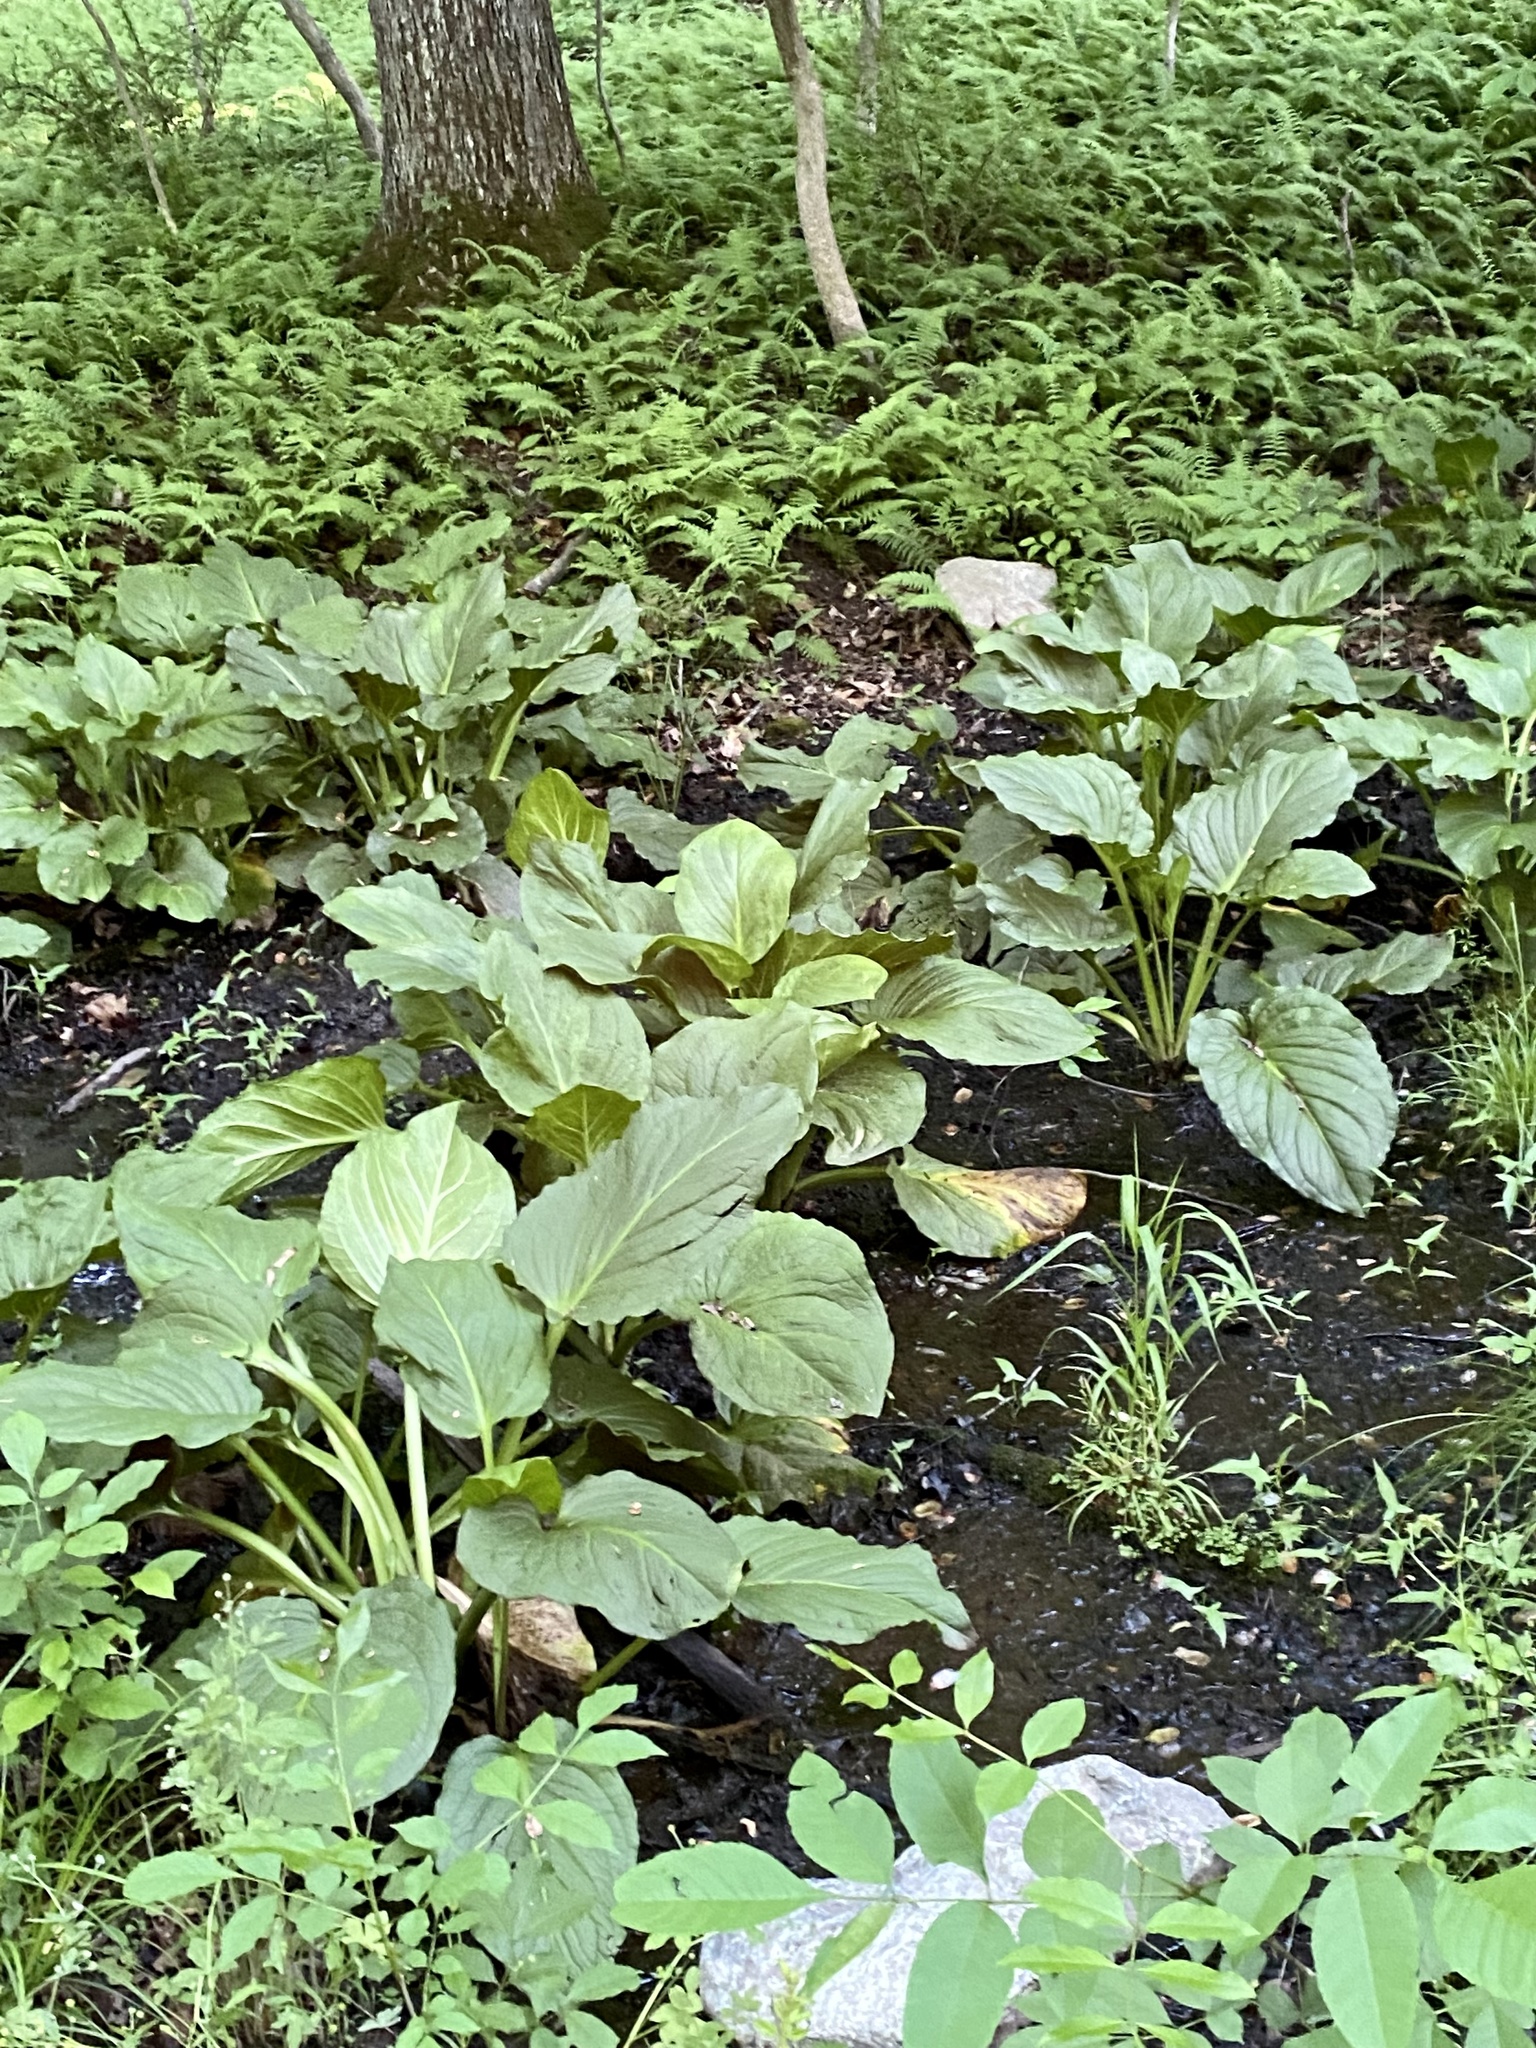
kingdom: Plantae
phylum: Tracheophyta
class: Liliopsida
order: Alismatales
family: Araceae
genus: Symplocarpus
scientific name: Symplocarpus foetidus
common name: Eastern skunk cabbage
